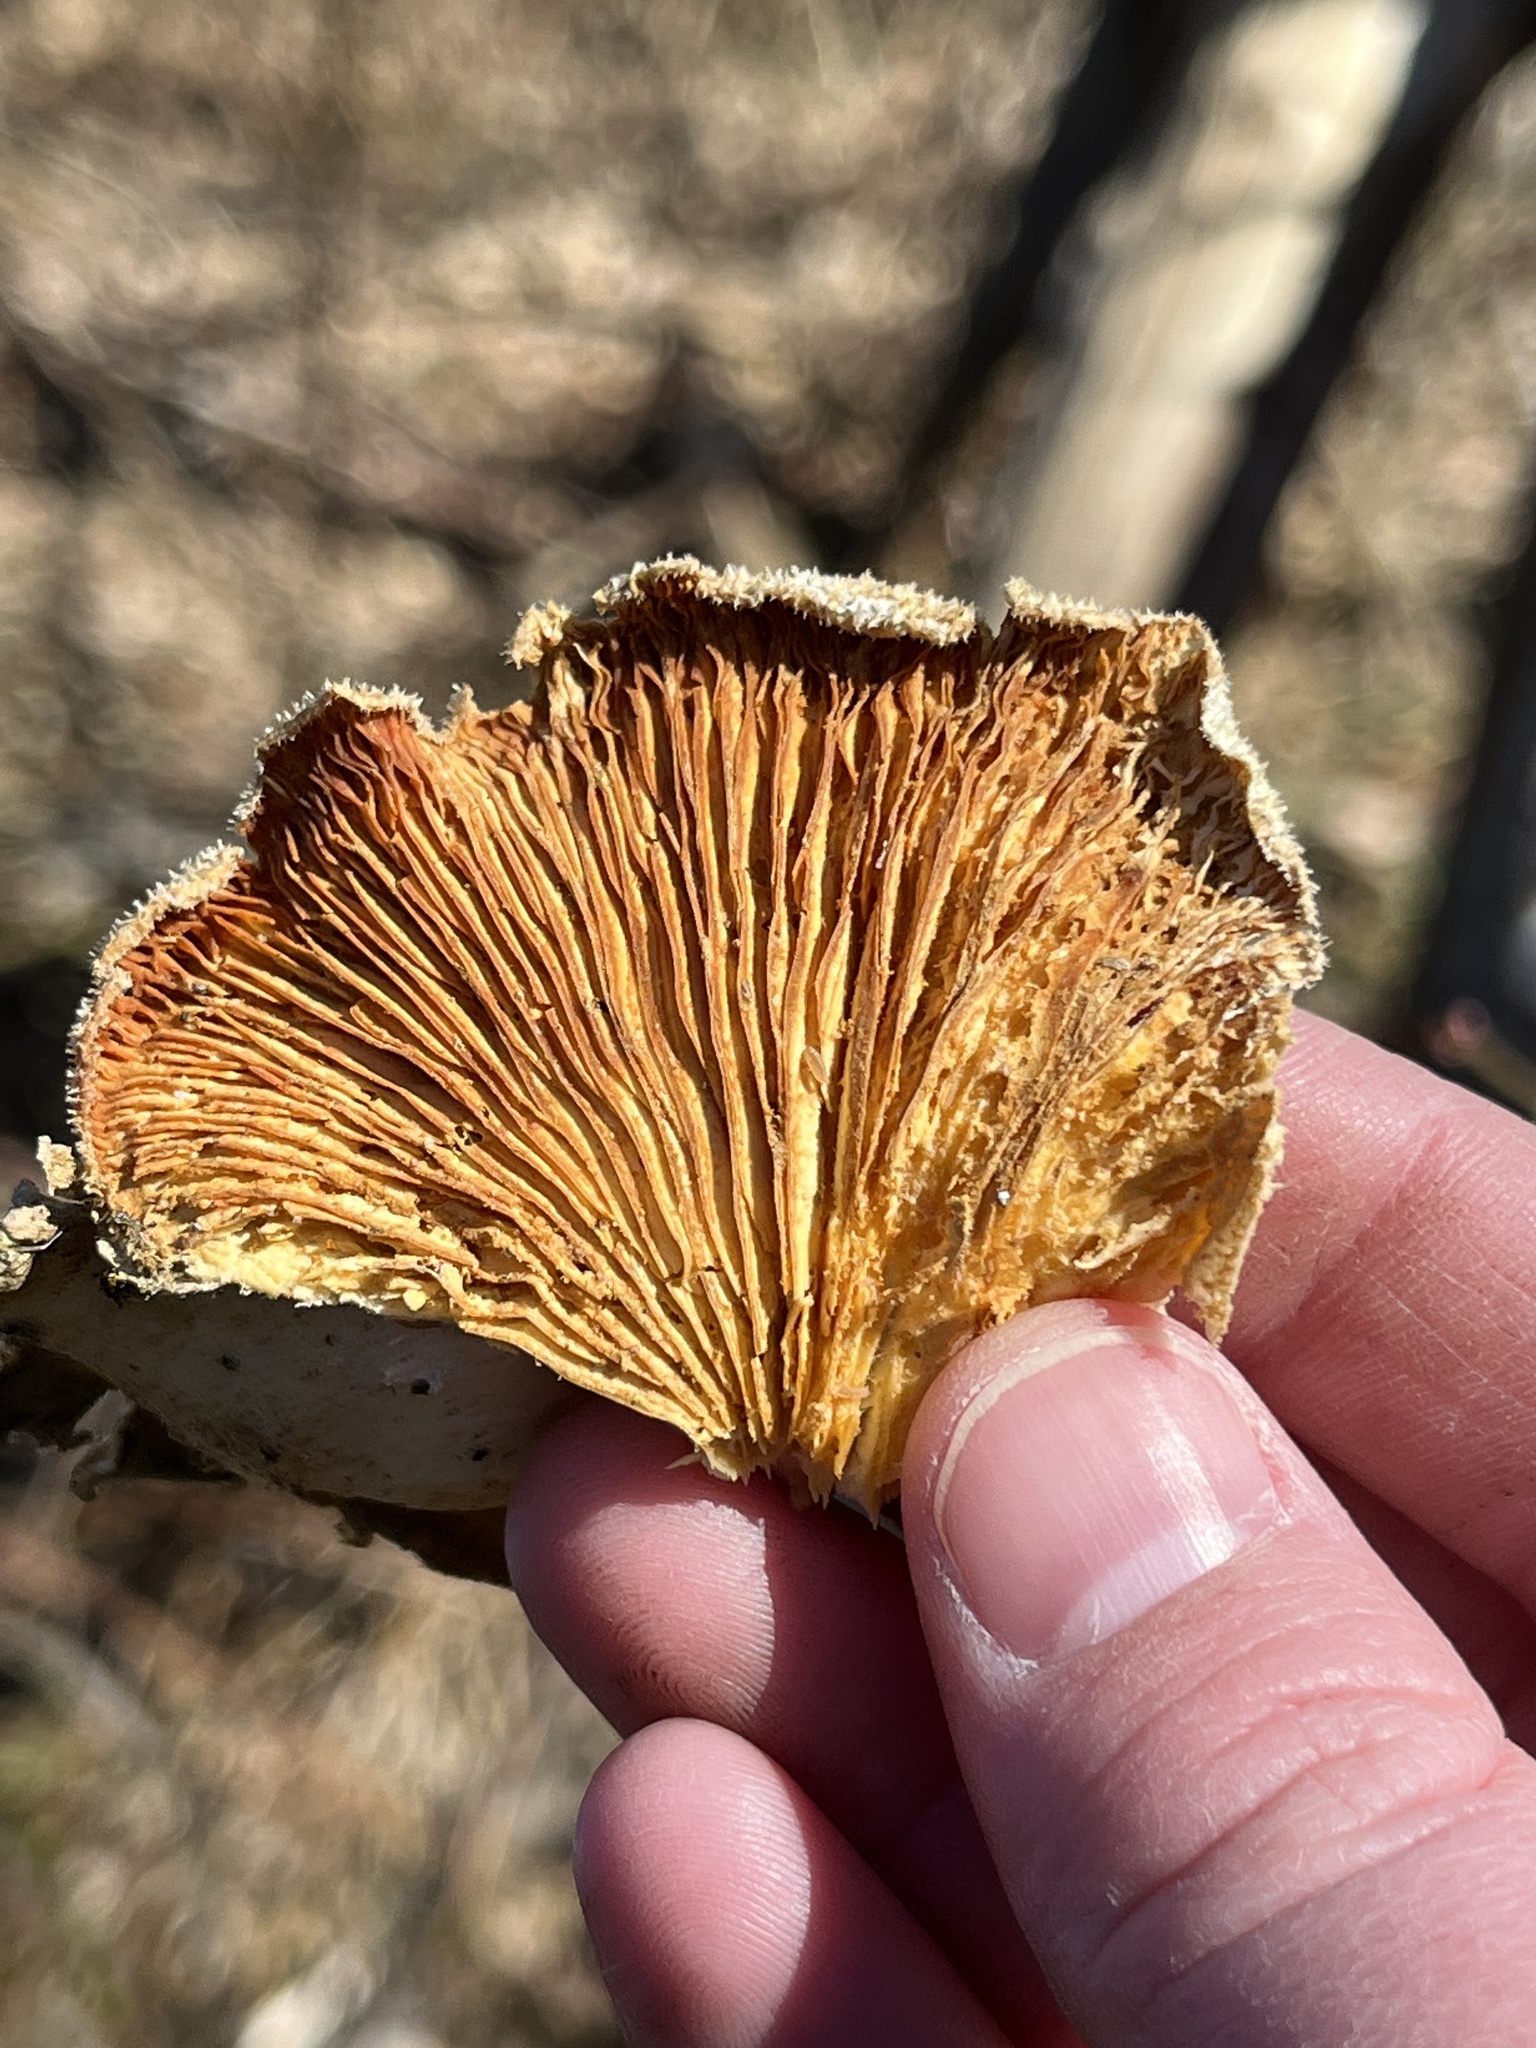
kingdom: Fungi
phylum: Basidiomycota
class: Agaricomycetes
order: Agaricales
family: Phyllotopsidaceae
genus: Phyllotopsis
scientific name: Phyllotopsis nidulans
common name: Orange mock oyster
